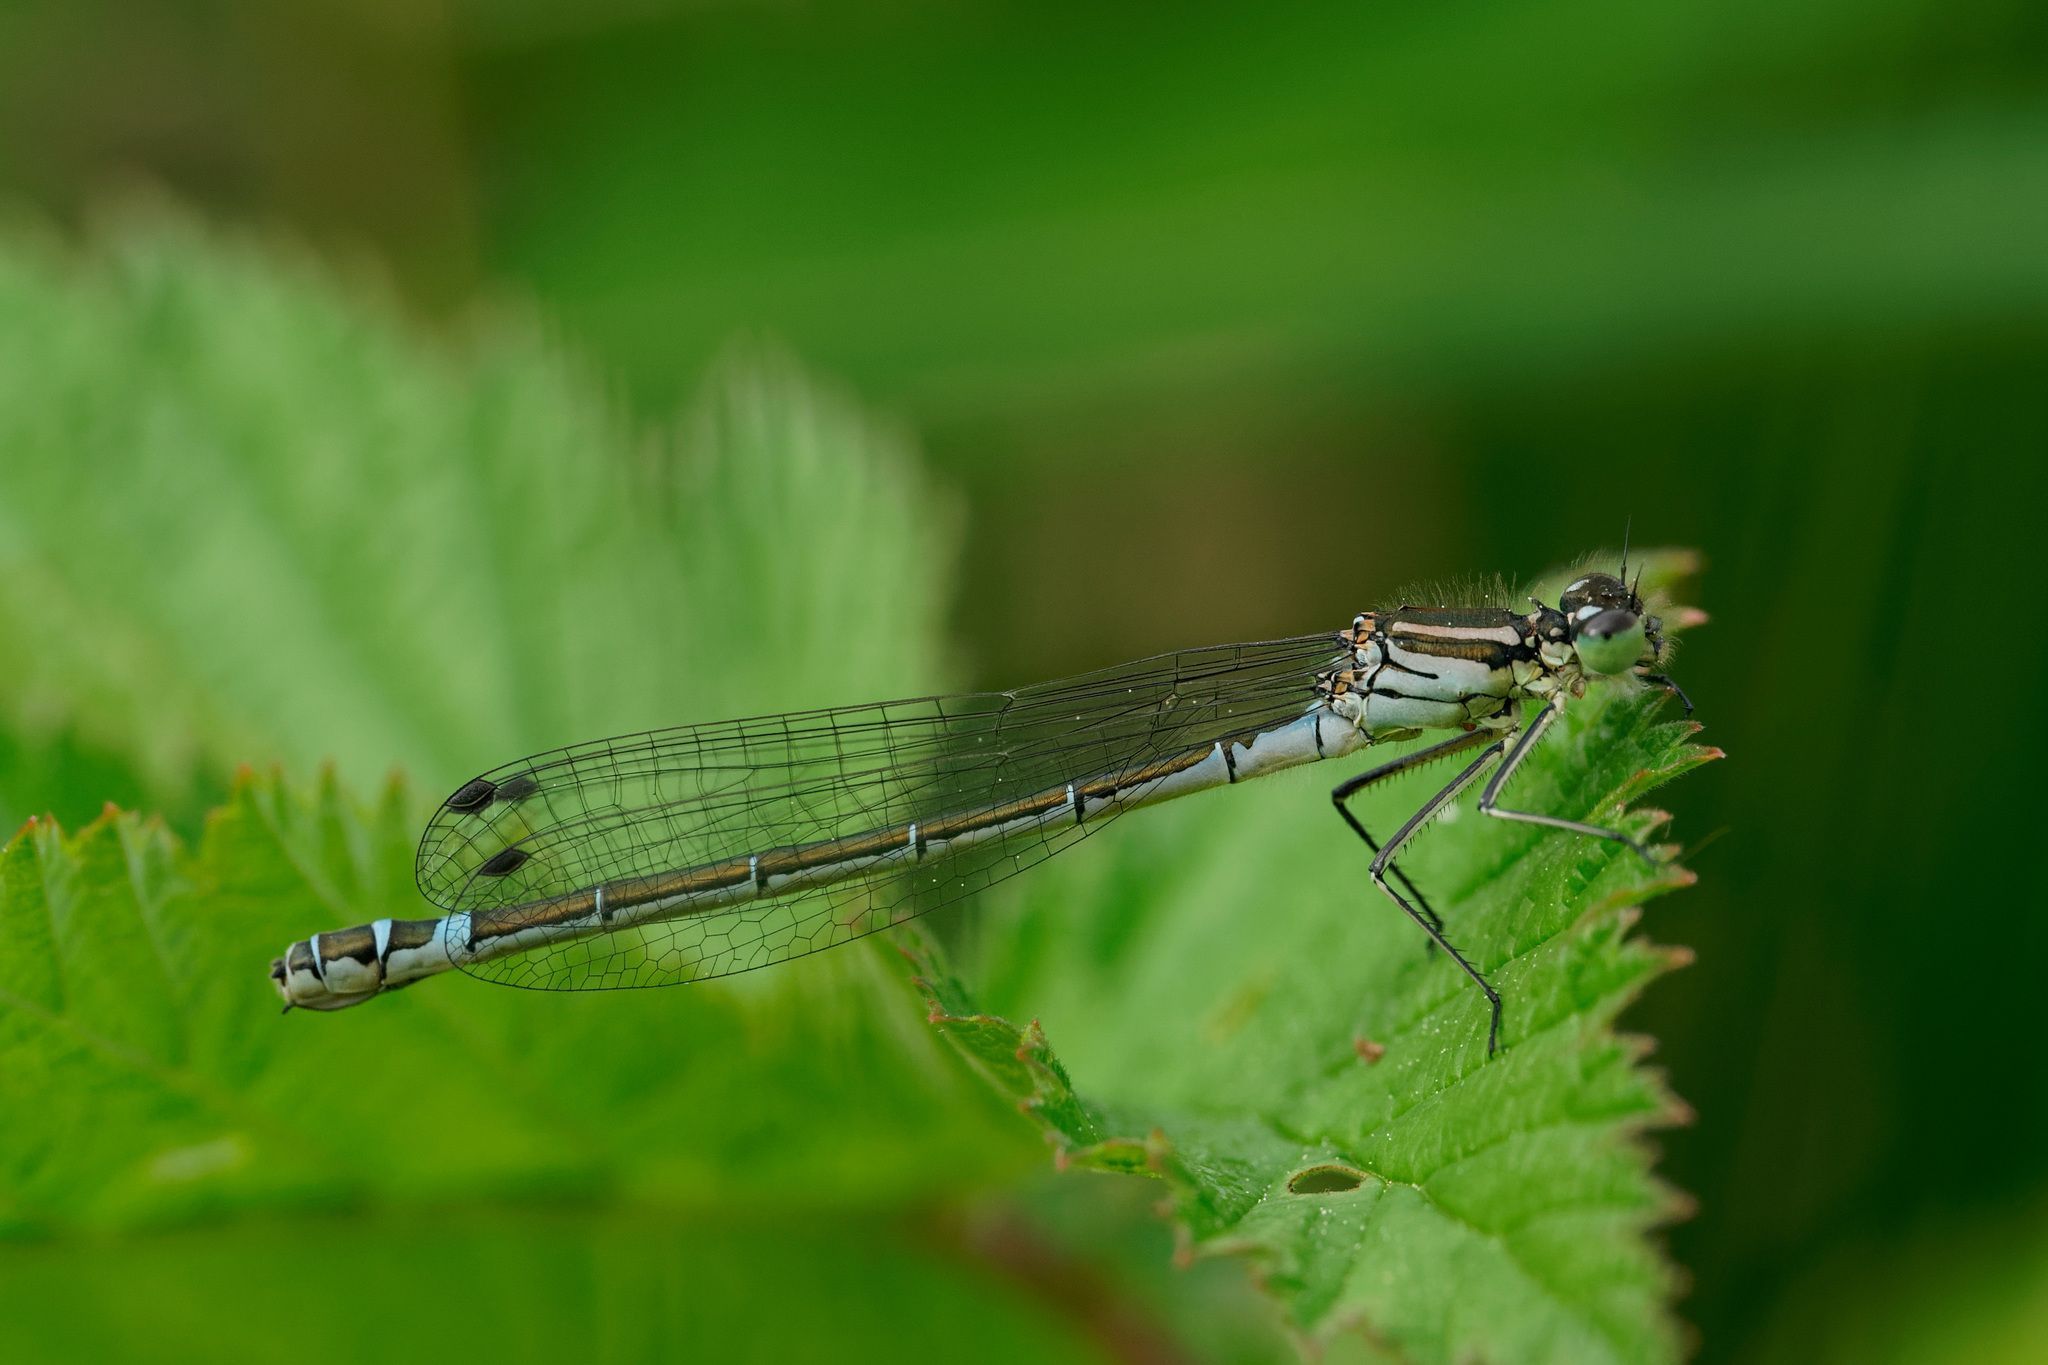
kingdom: Animalia
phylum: Arthropoda
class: Insecta
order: Odonata
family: Coenagrionidae
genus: Coenagrion
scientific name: Coenagrion lunulatum
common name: Irish damselfly
